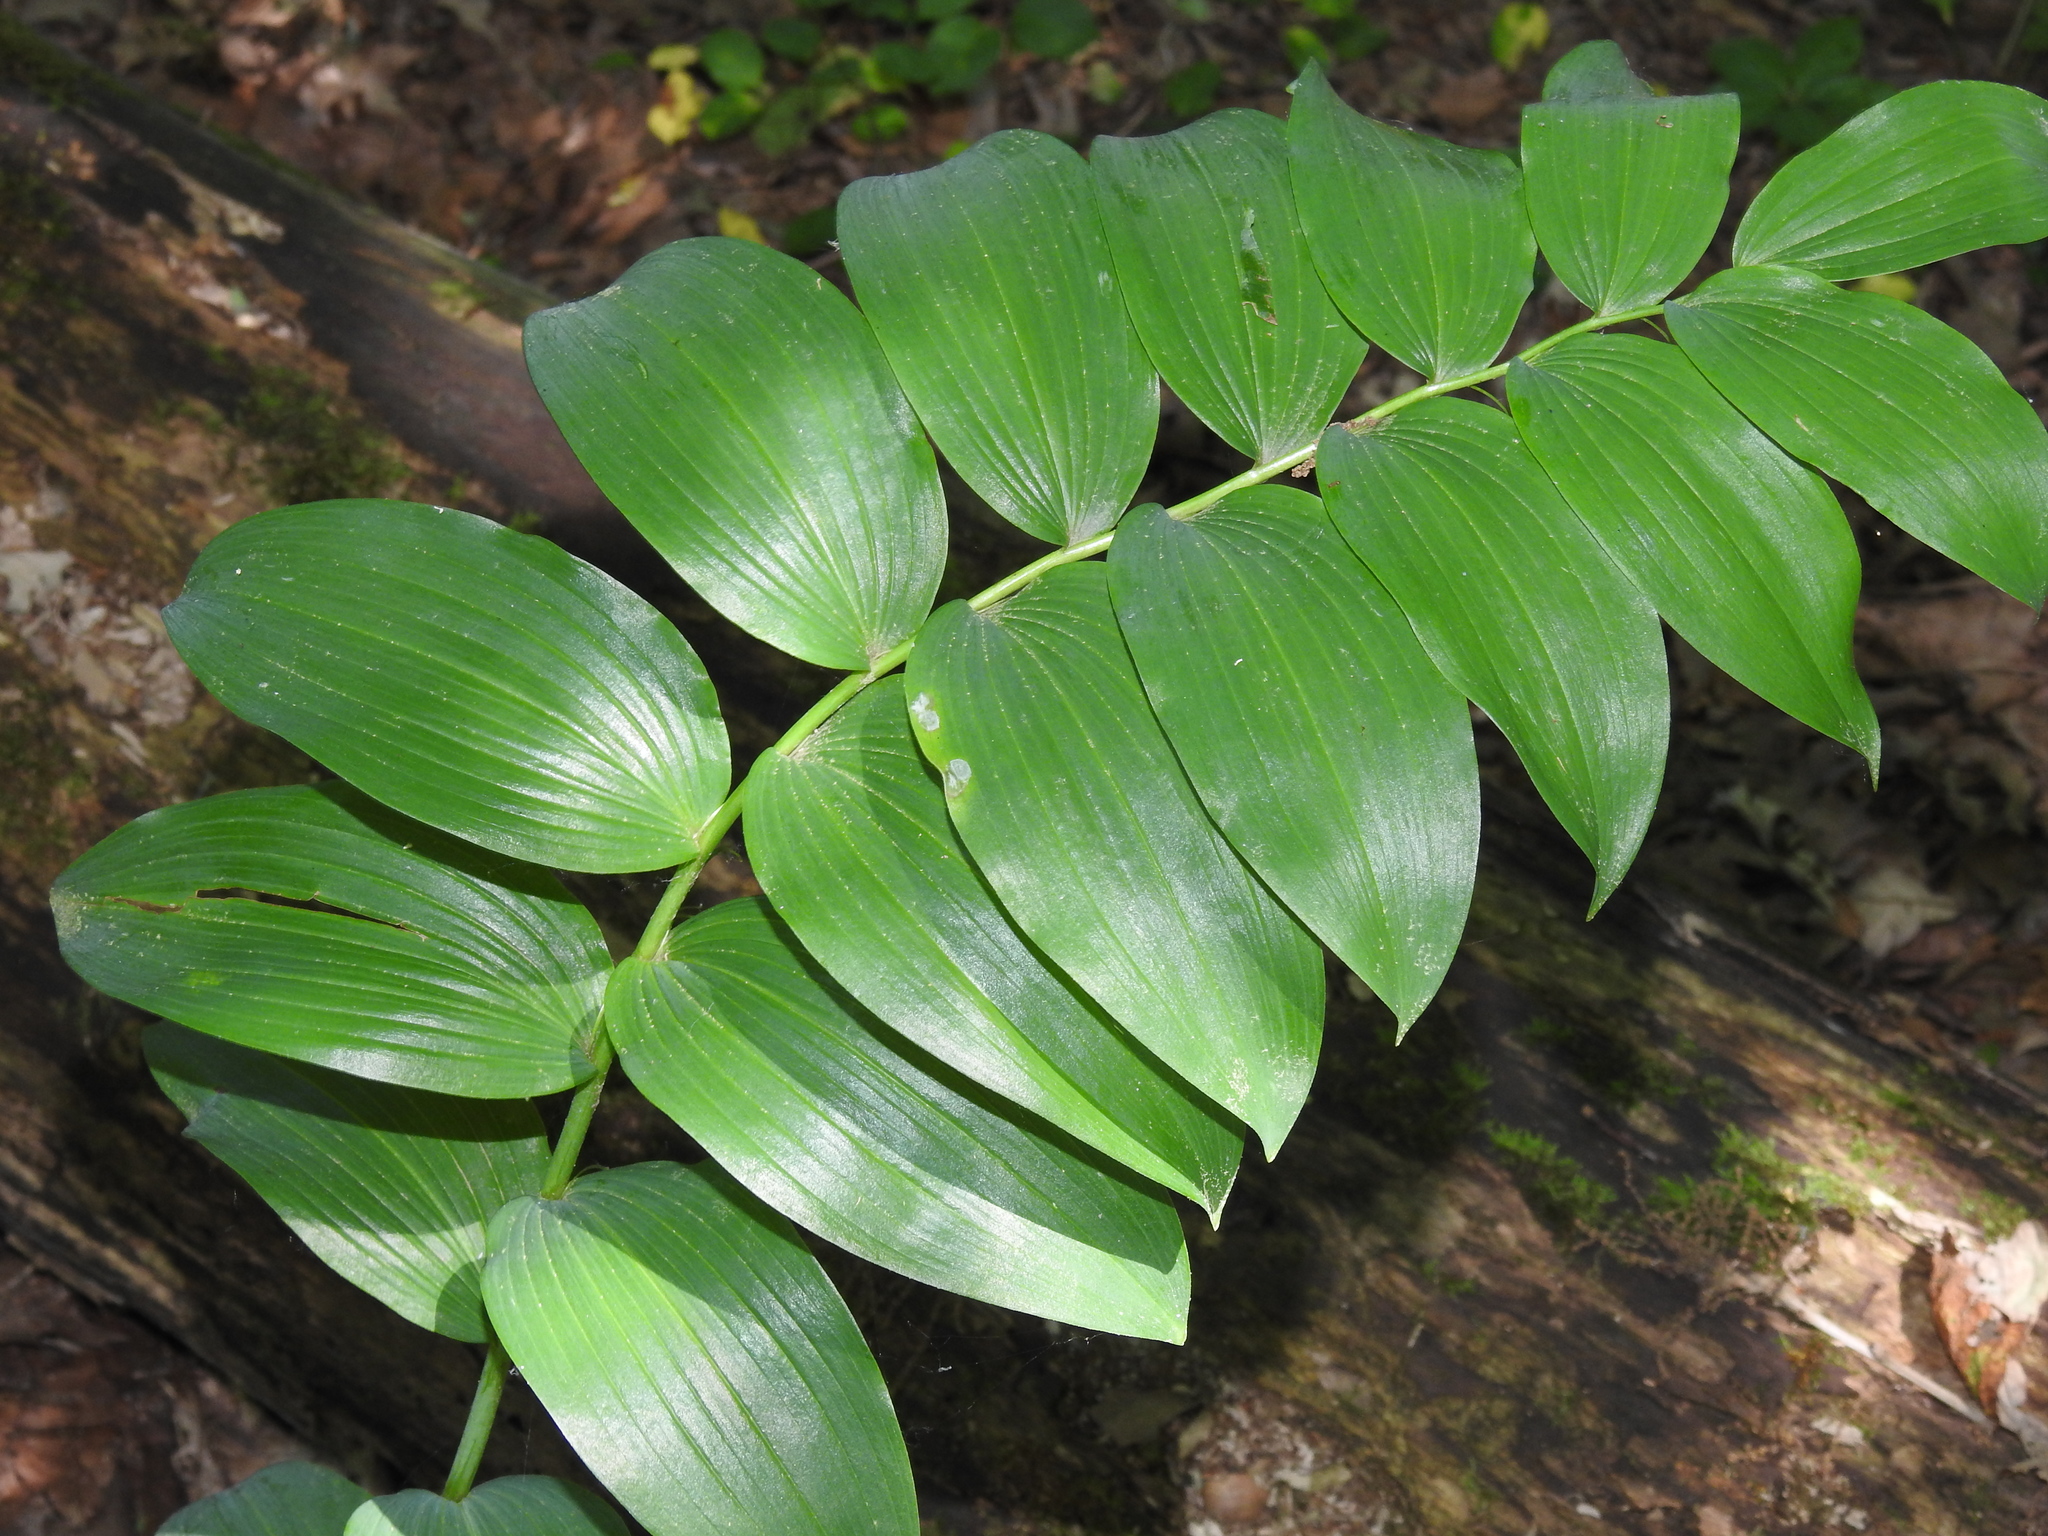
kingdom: Plantae
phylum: Tracheophyta
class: Liliopsida
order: Asparagales
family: Asparagaceae
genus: Polygonatum
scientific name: Polygonatum biflorum
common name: American solomon's-seal
